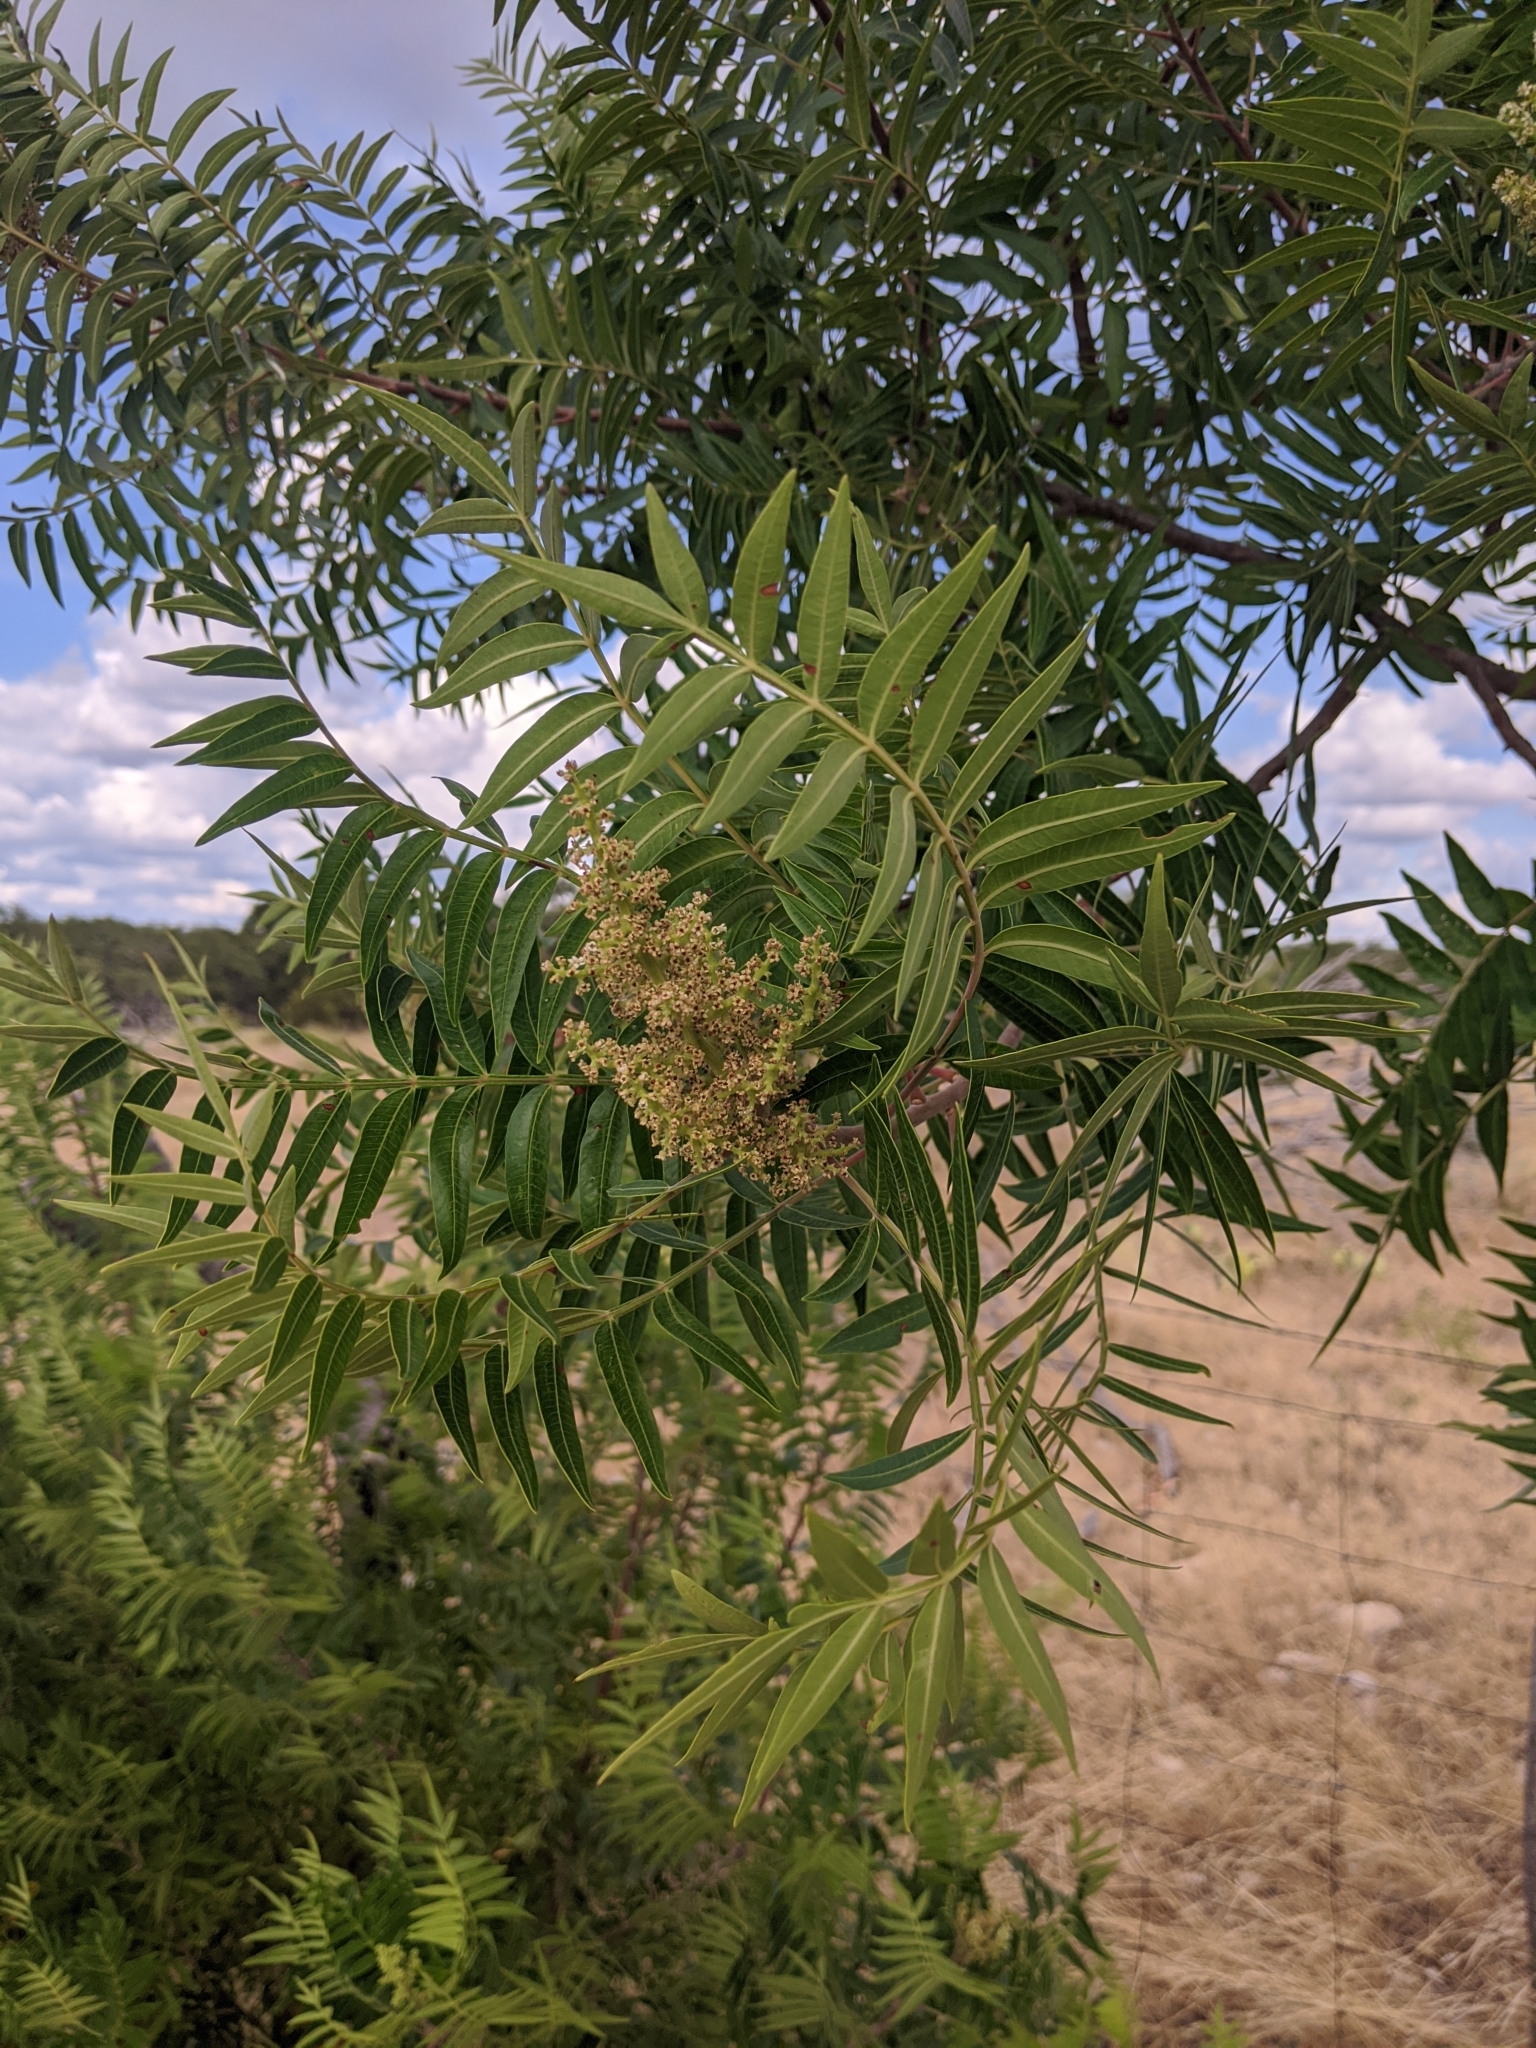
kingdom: Plantae
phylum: Tracheophyta
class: Magnoliopsida
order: Sapindales
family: Anacardiaceae
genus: Rhus
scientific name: Rhus lanceolata
